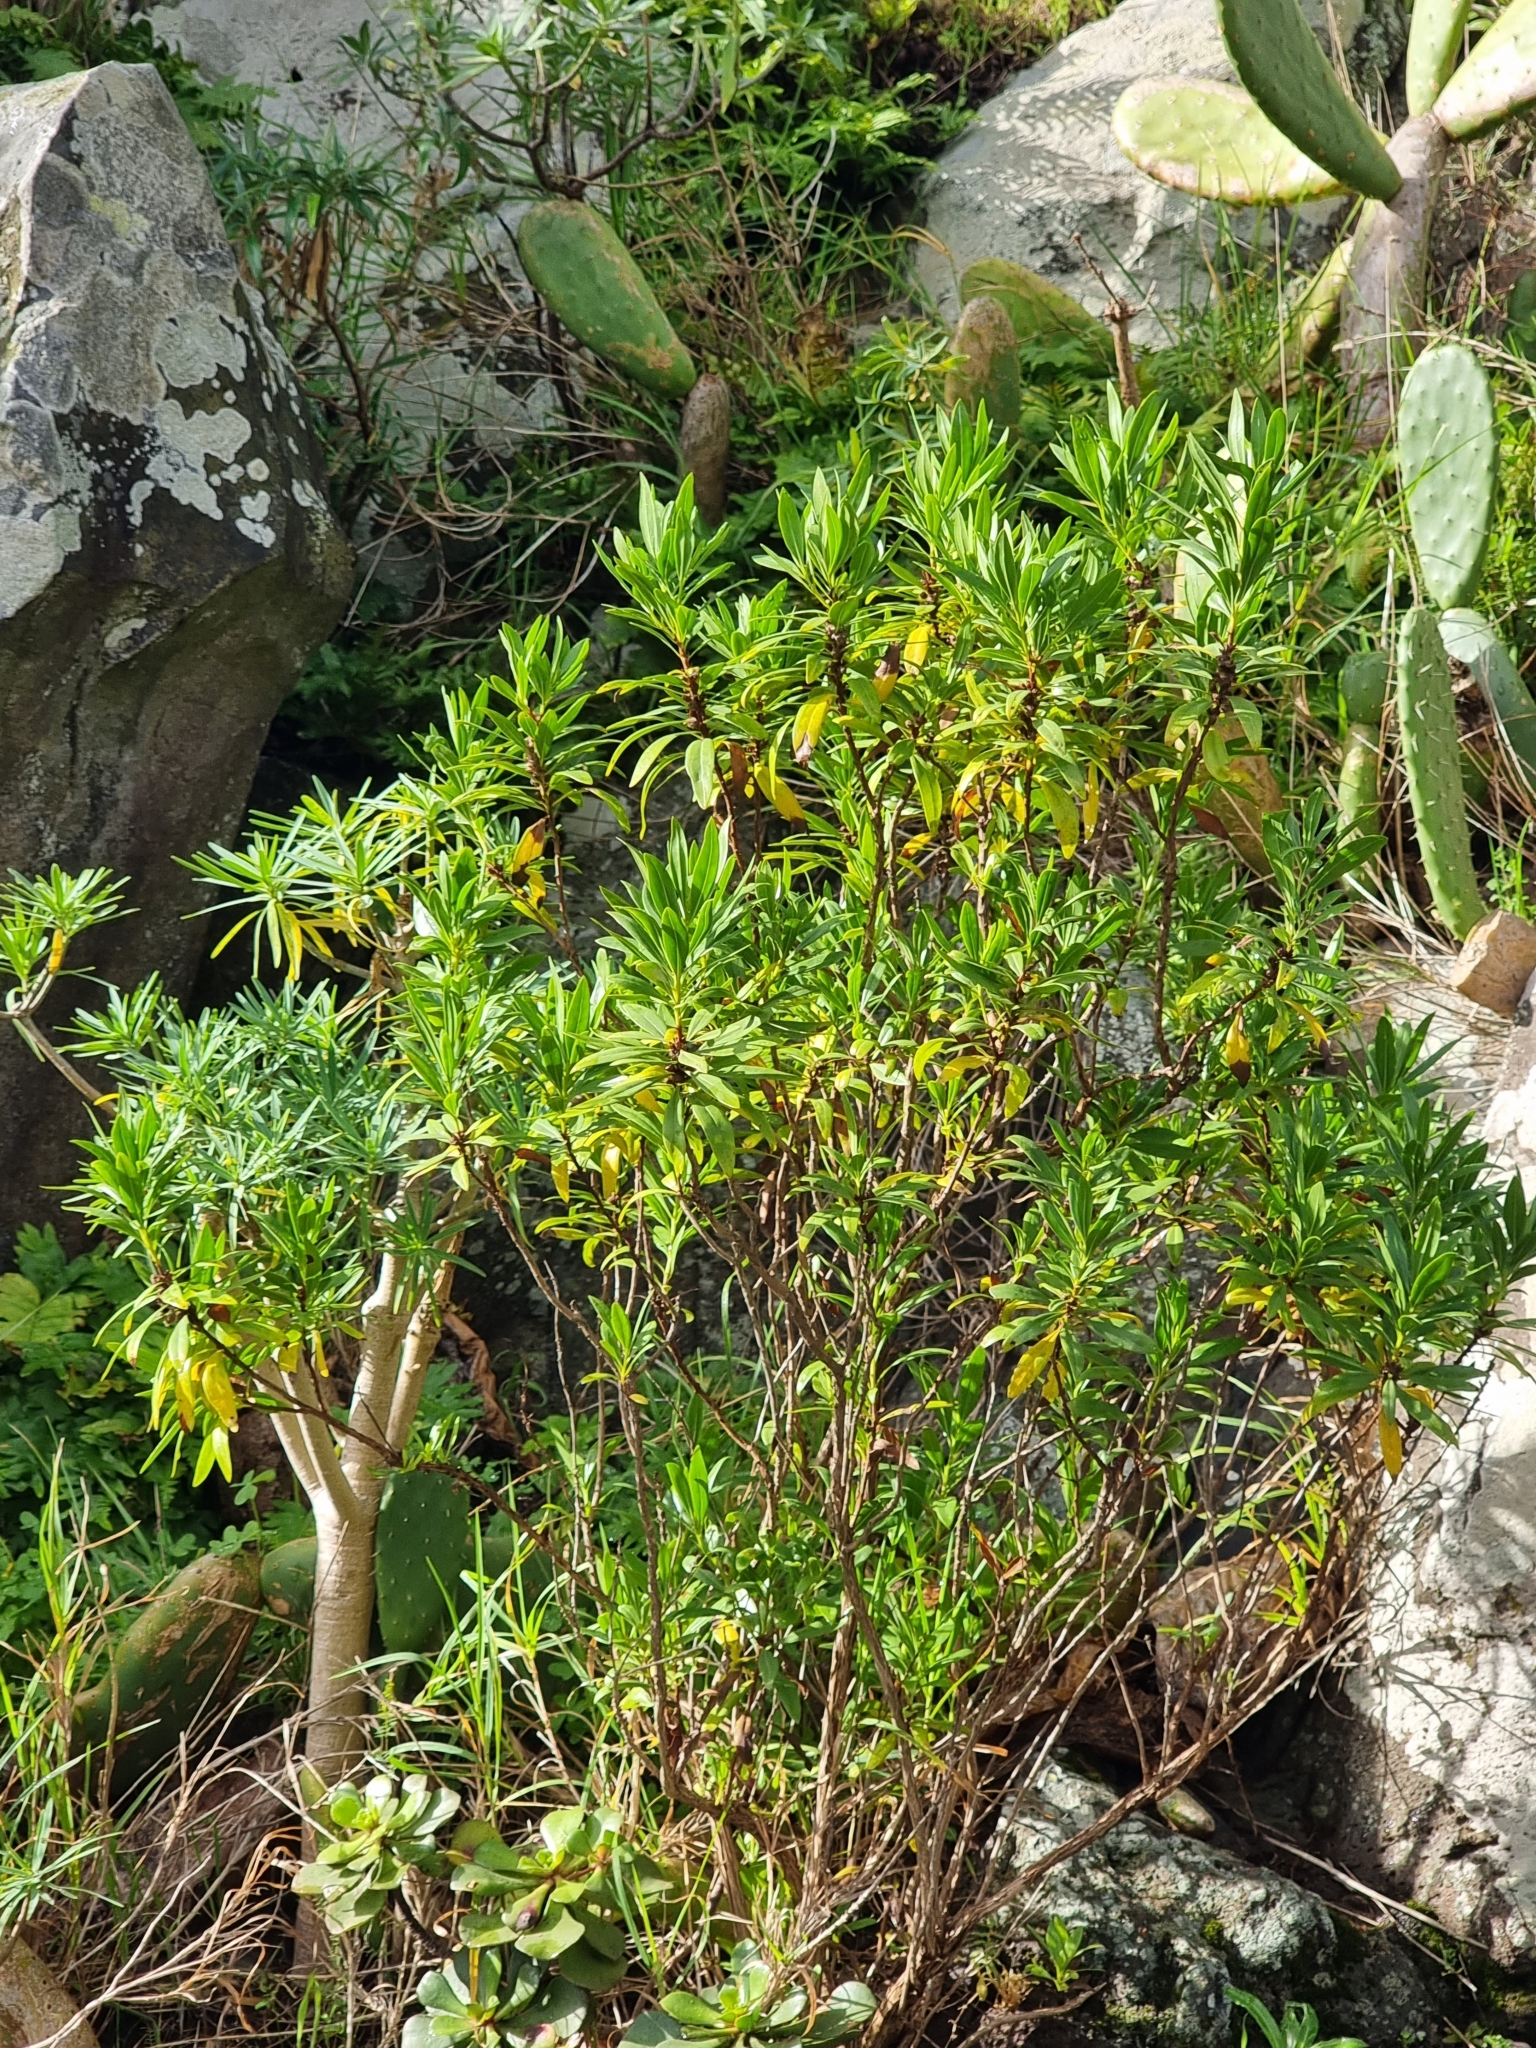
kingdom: Plantae
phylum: Tracheophyta
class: Magnoliopsida
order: Lamiales
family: Plantaginaceae
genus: Globularia
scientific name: Globularia salicina
